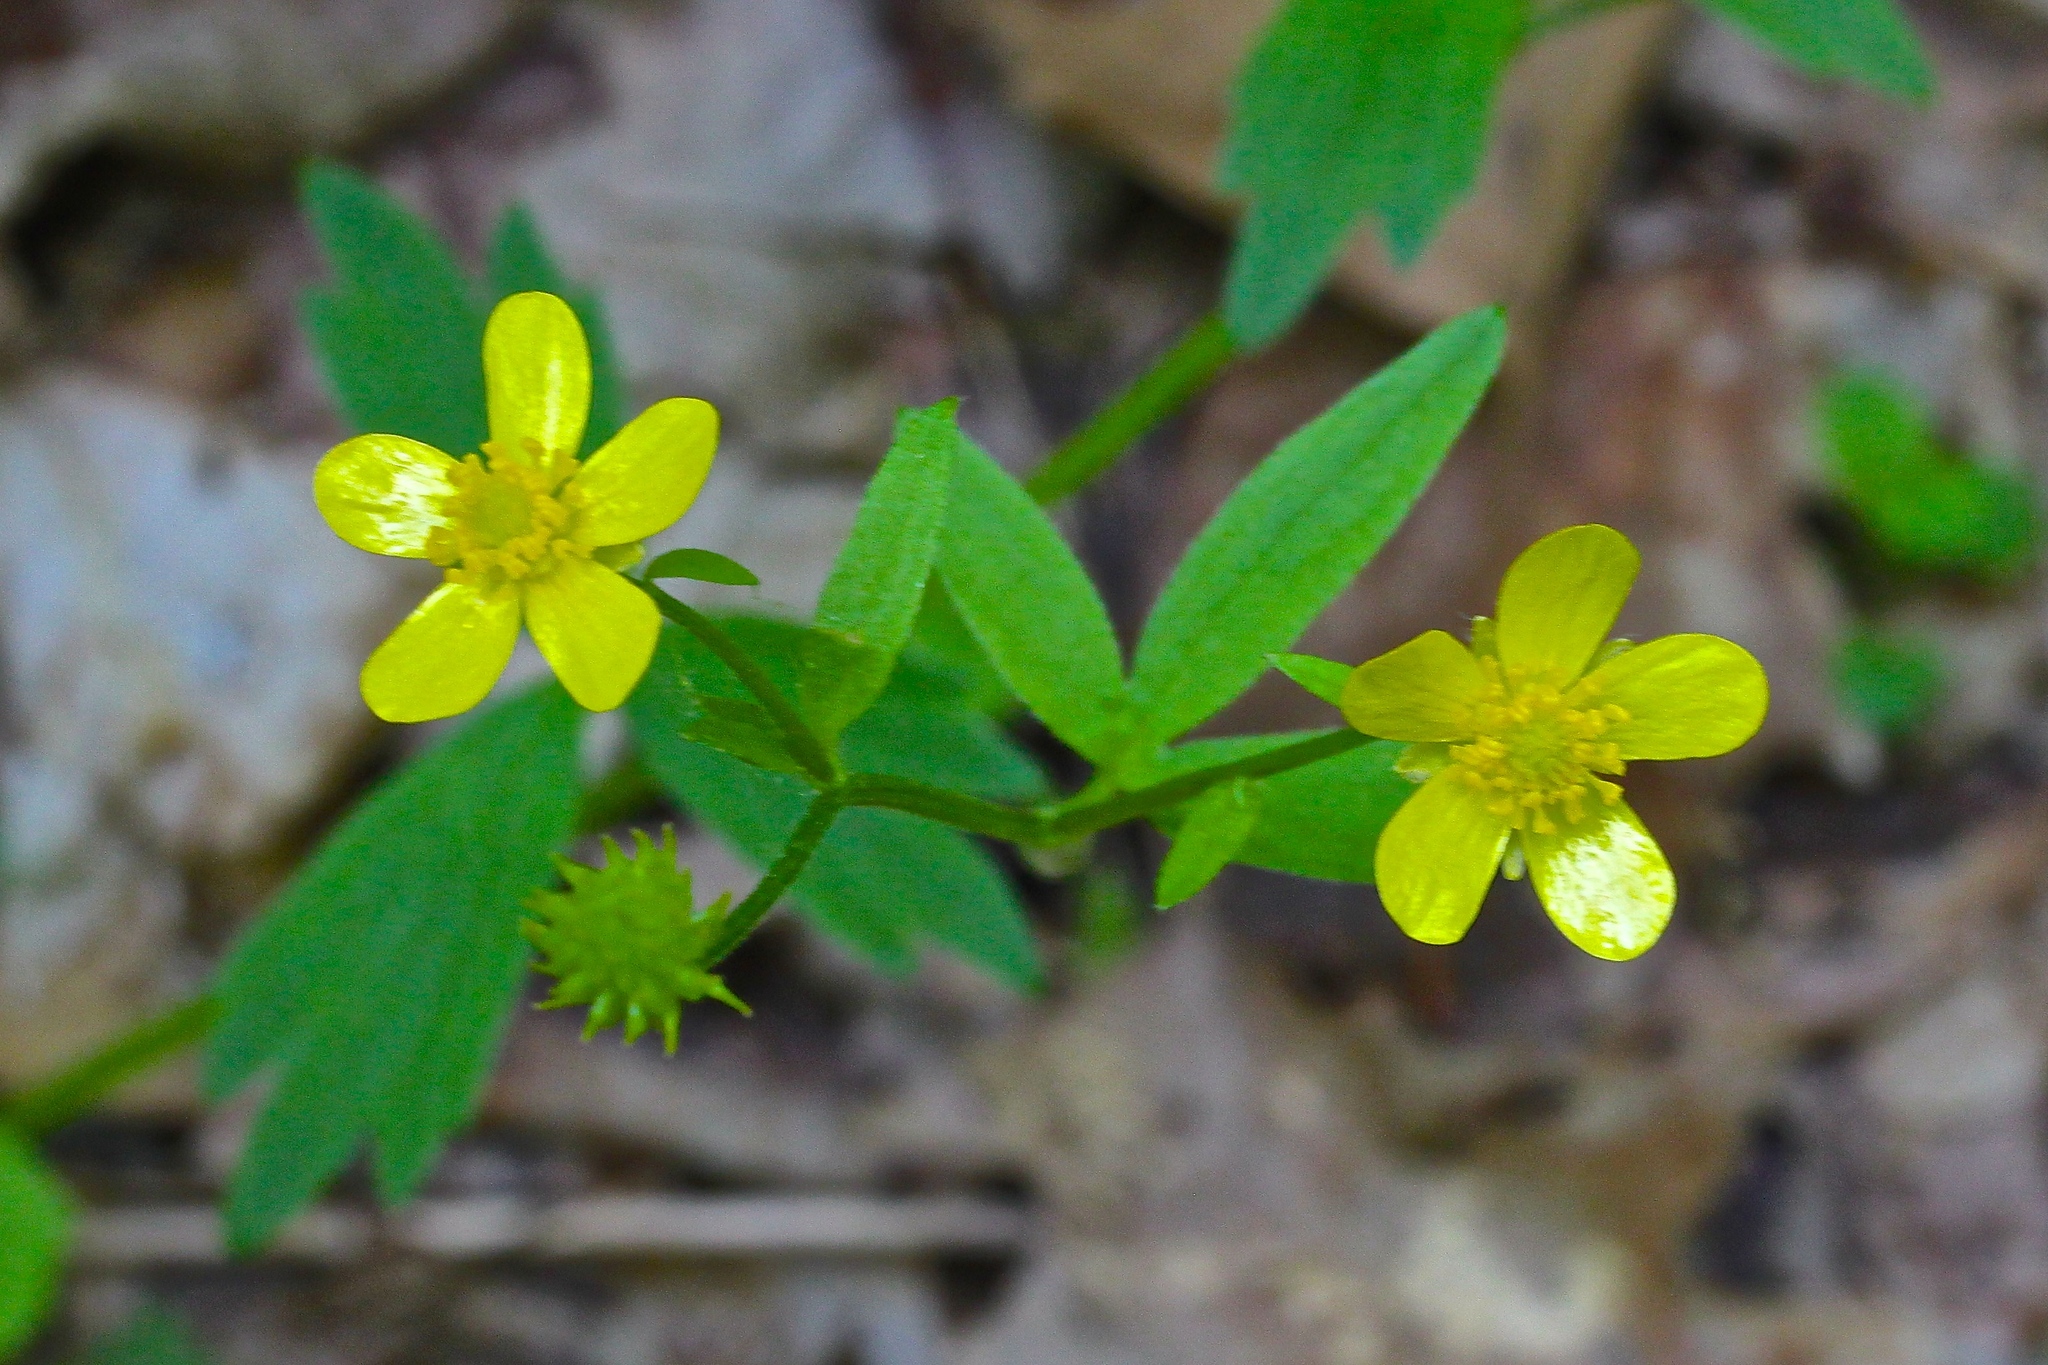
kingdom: Plantae
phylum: Tracheophyta
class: Magnoliopsida
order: Ranunculales
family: Ranunculaceae
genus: Ranunculus
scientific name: Ranunculus hispidus
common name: Bristly buttercup
